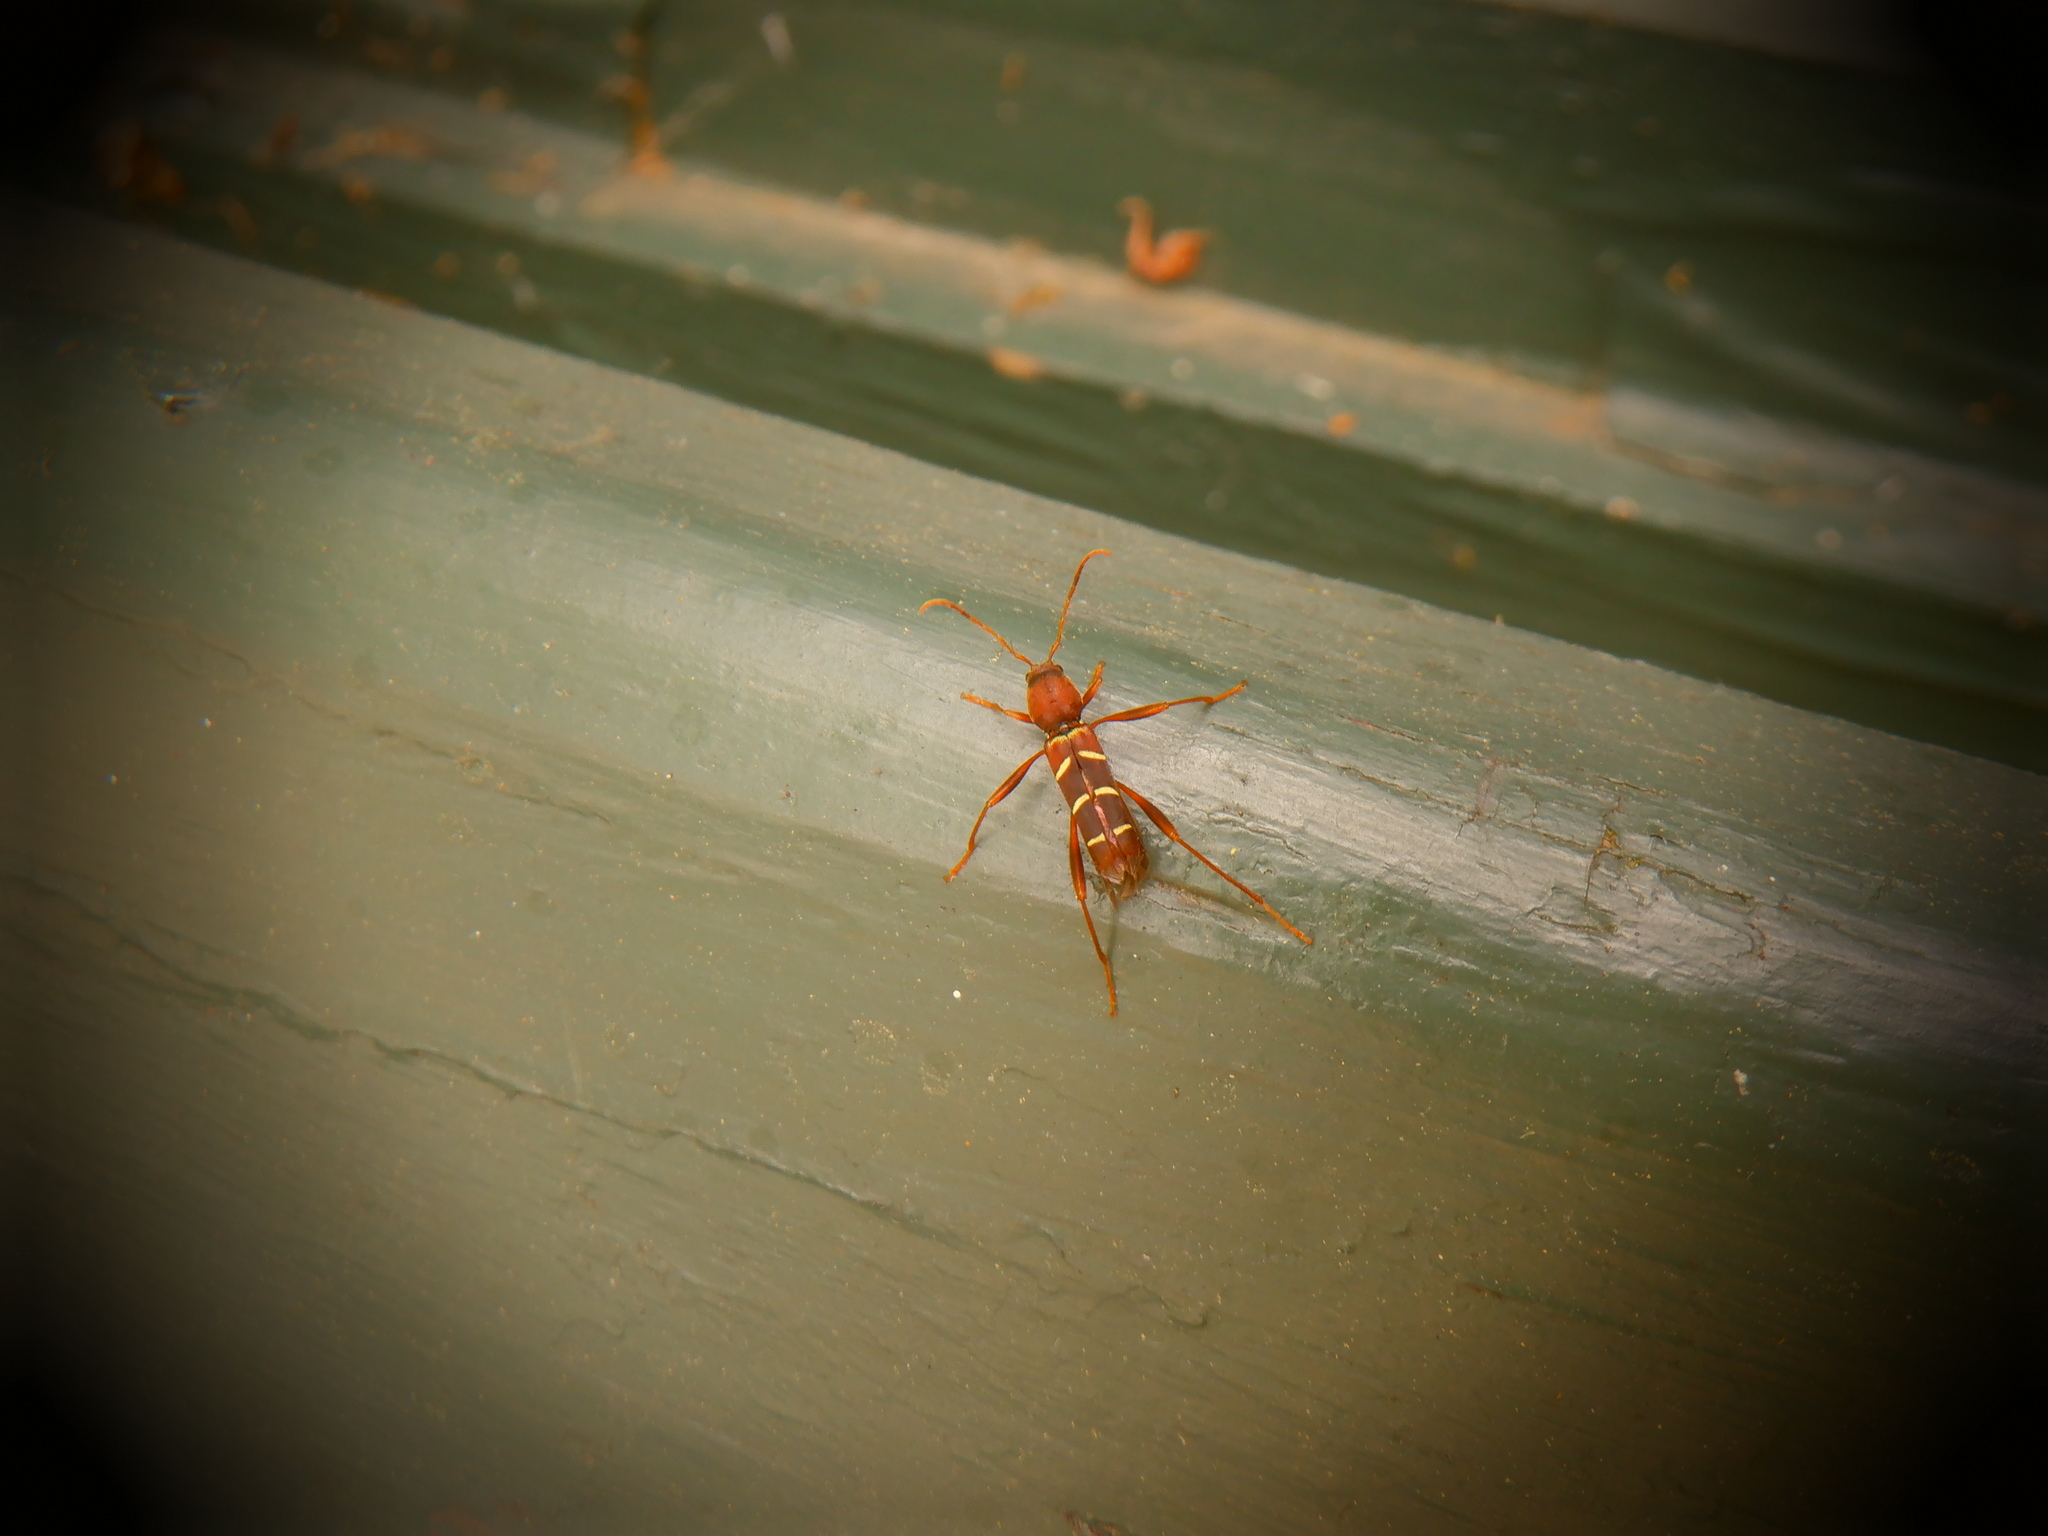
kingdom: Animalia
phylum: Arthropoda
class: Insecta
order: Coleoptera
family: Cerambycidae
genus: Neoclytus
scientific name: Neoclytus acuminatus
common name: Read-headed ash borer
